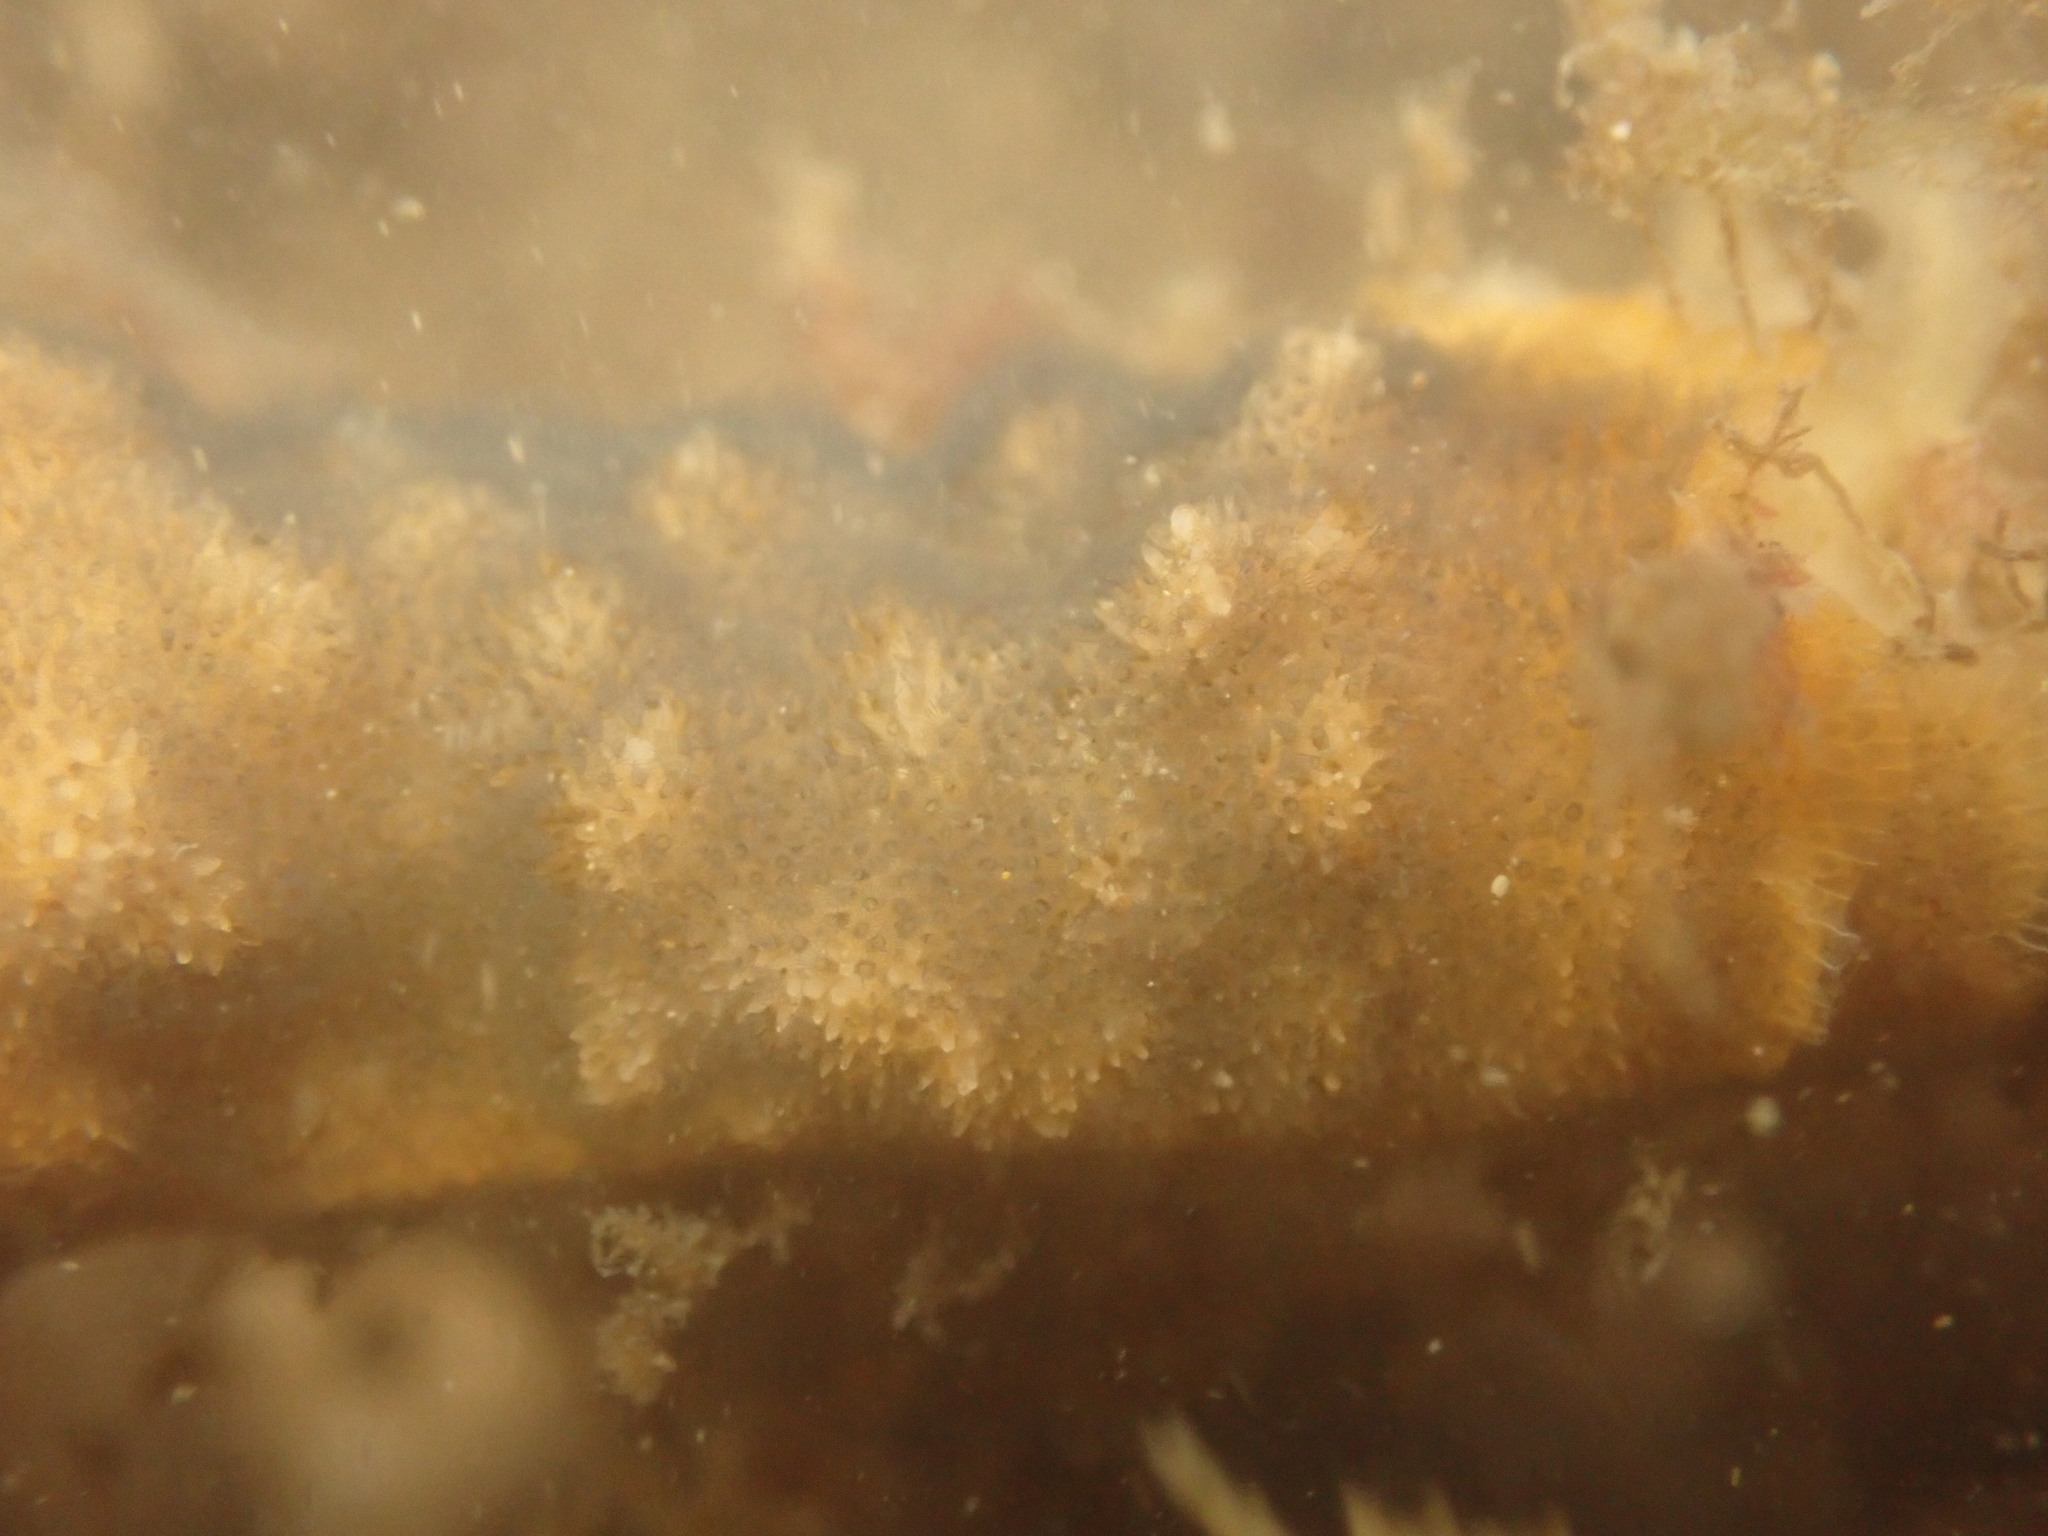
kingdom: Animalia
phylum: Bryozoa
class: Gymnolaemata
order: Cheilostomatida
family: Celleporidae
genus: Celleporaria
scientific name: Celleporaria nodulosa
